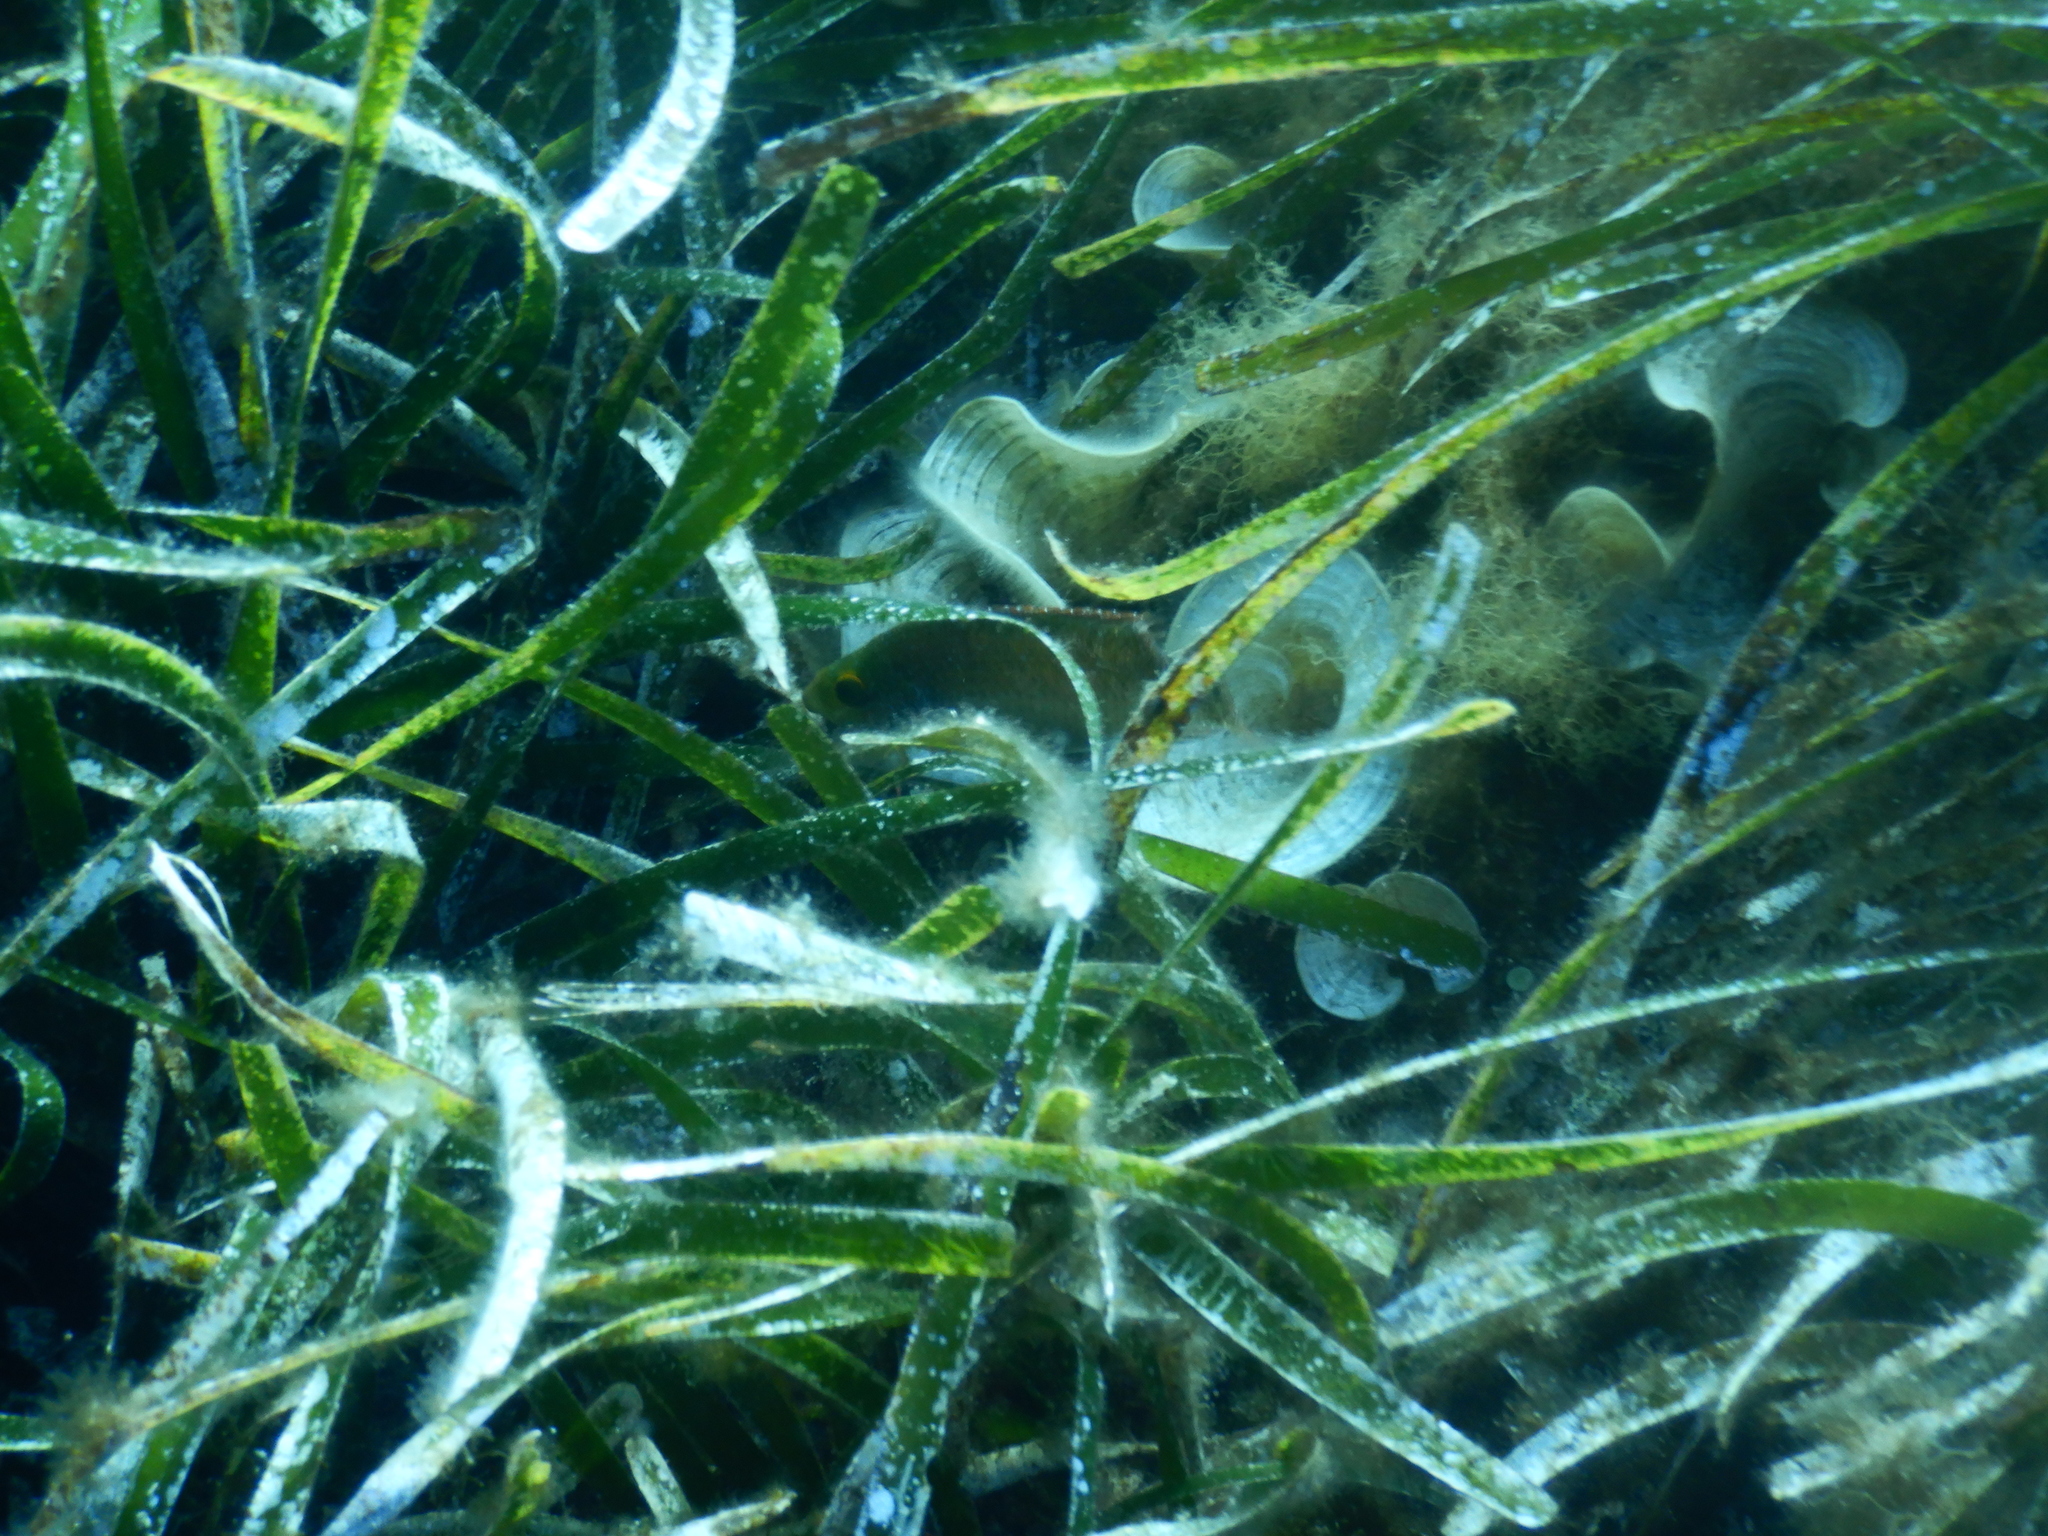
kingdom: Plantae
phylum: Tracheophyta
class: Liliopsida
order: Alismatales
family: Posidoniaceae
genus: Posidonia
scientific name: Posidonia oceanica
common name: Mediterranean tapeweed
